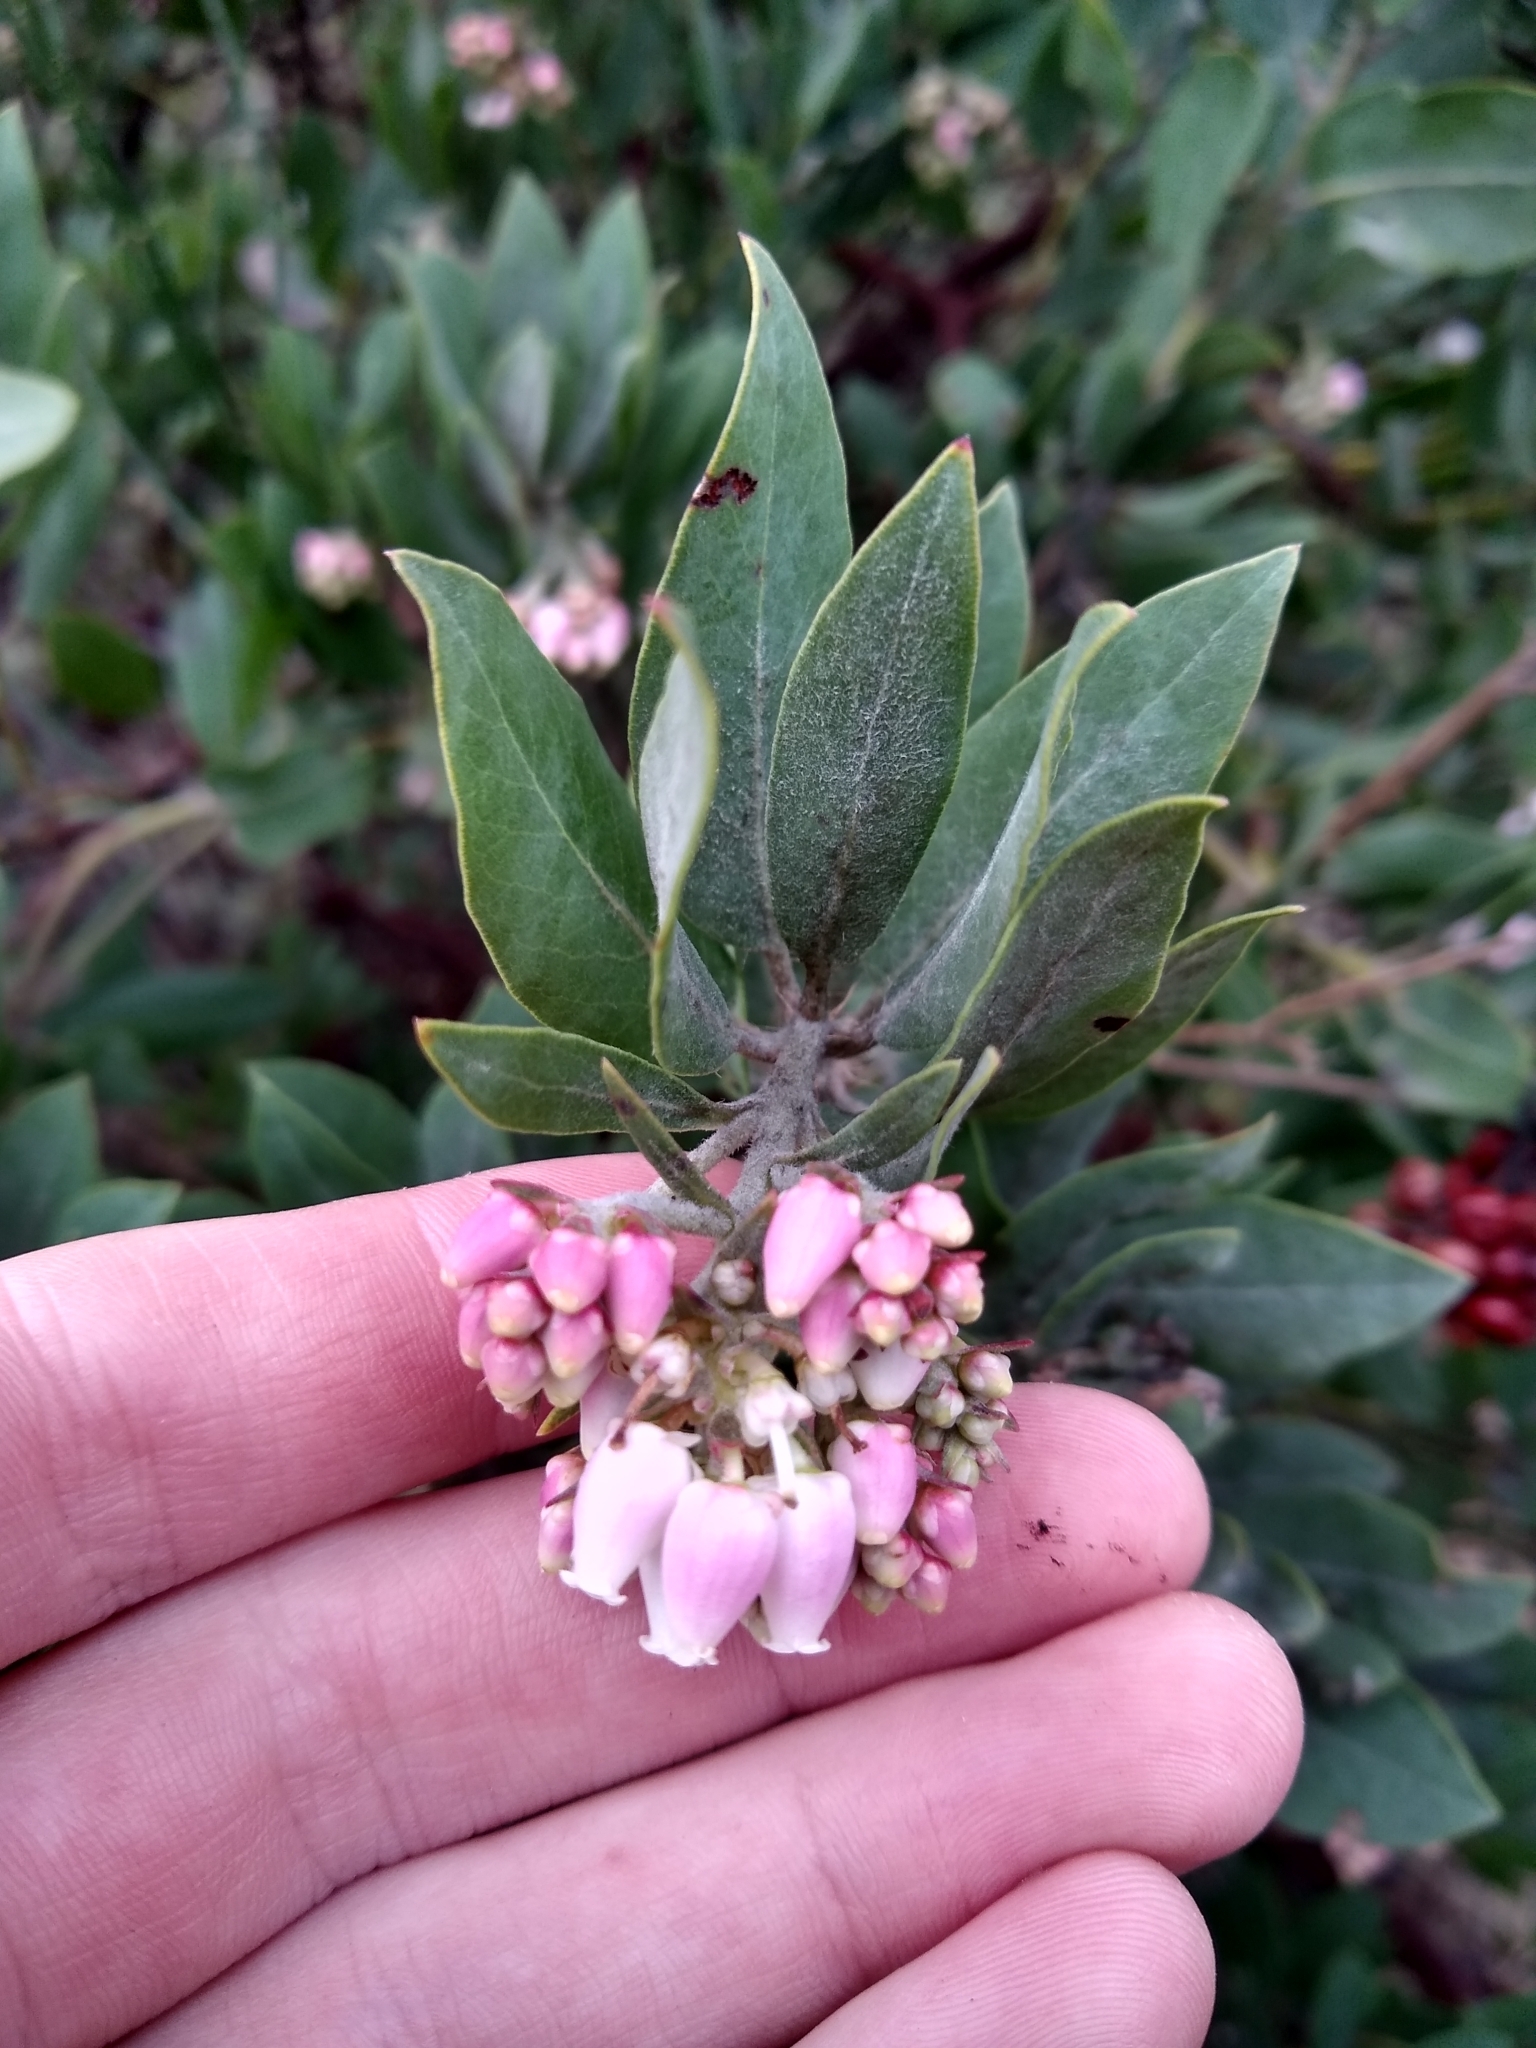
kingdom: Plantae
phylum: Tracheophyta
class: Magnoliopsida
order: Ericales
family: Ericaceae
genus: Arctostaphylos
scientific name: Arctostaphylos columbiana
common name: Bristly bearberry
